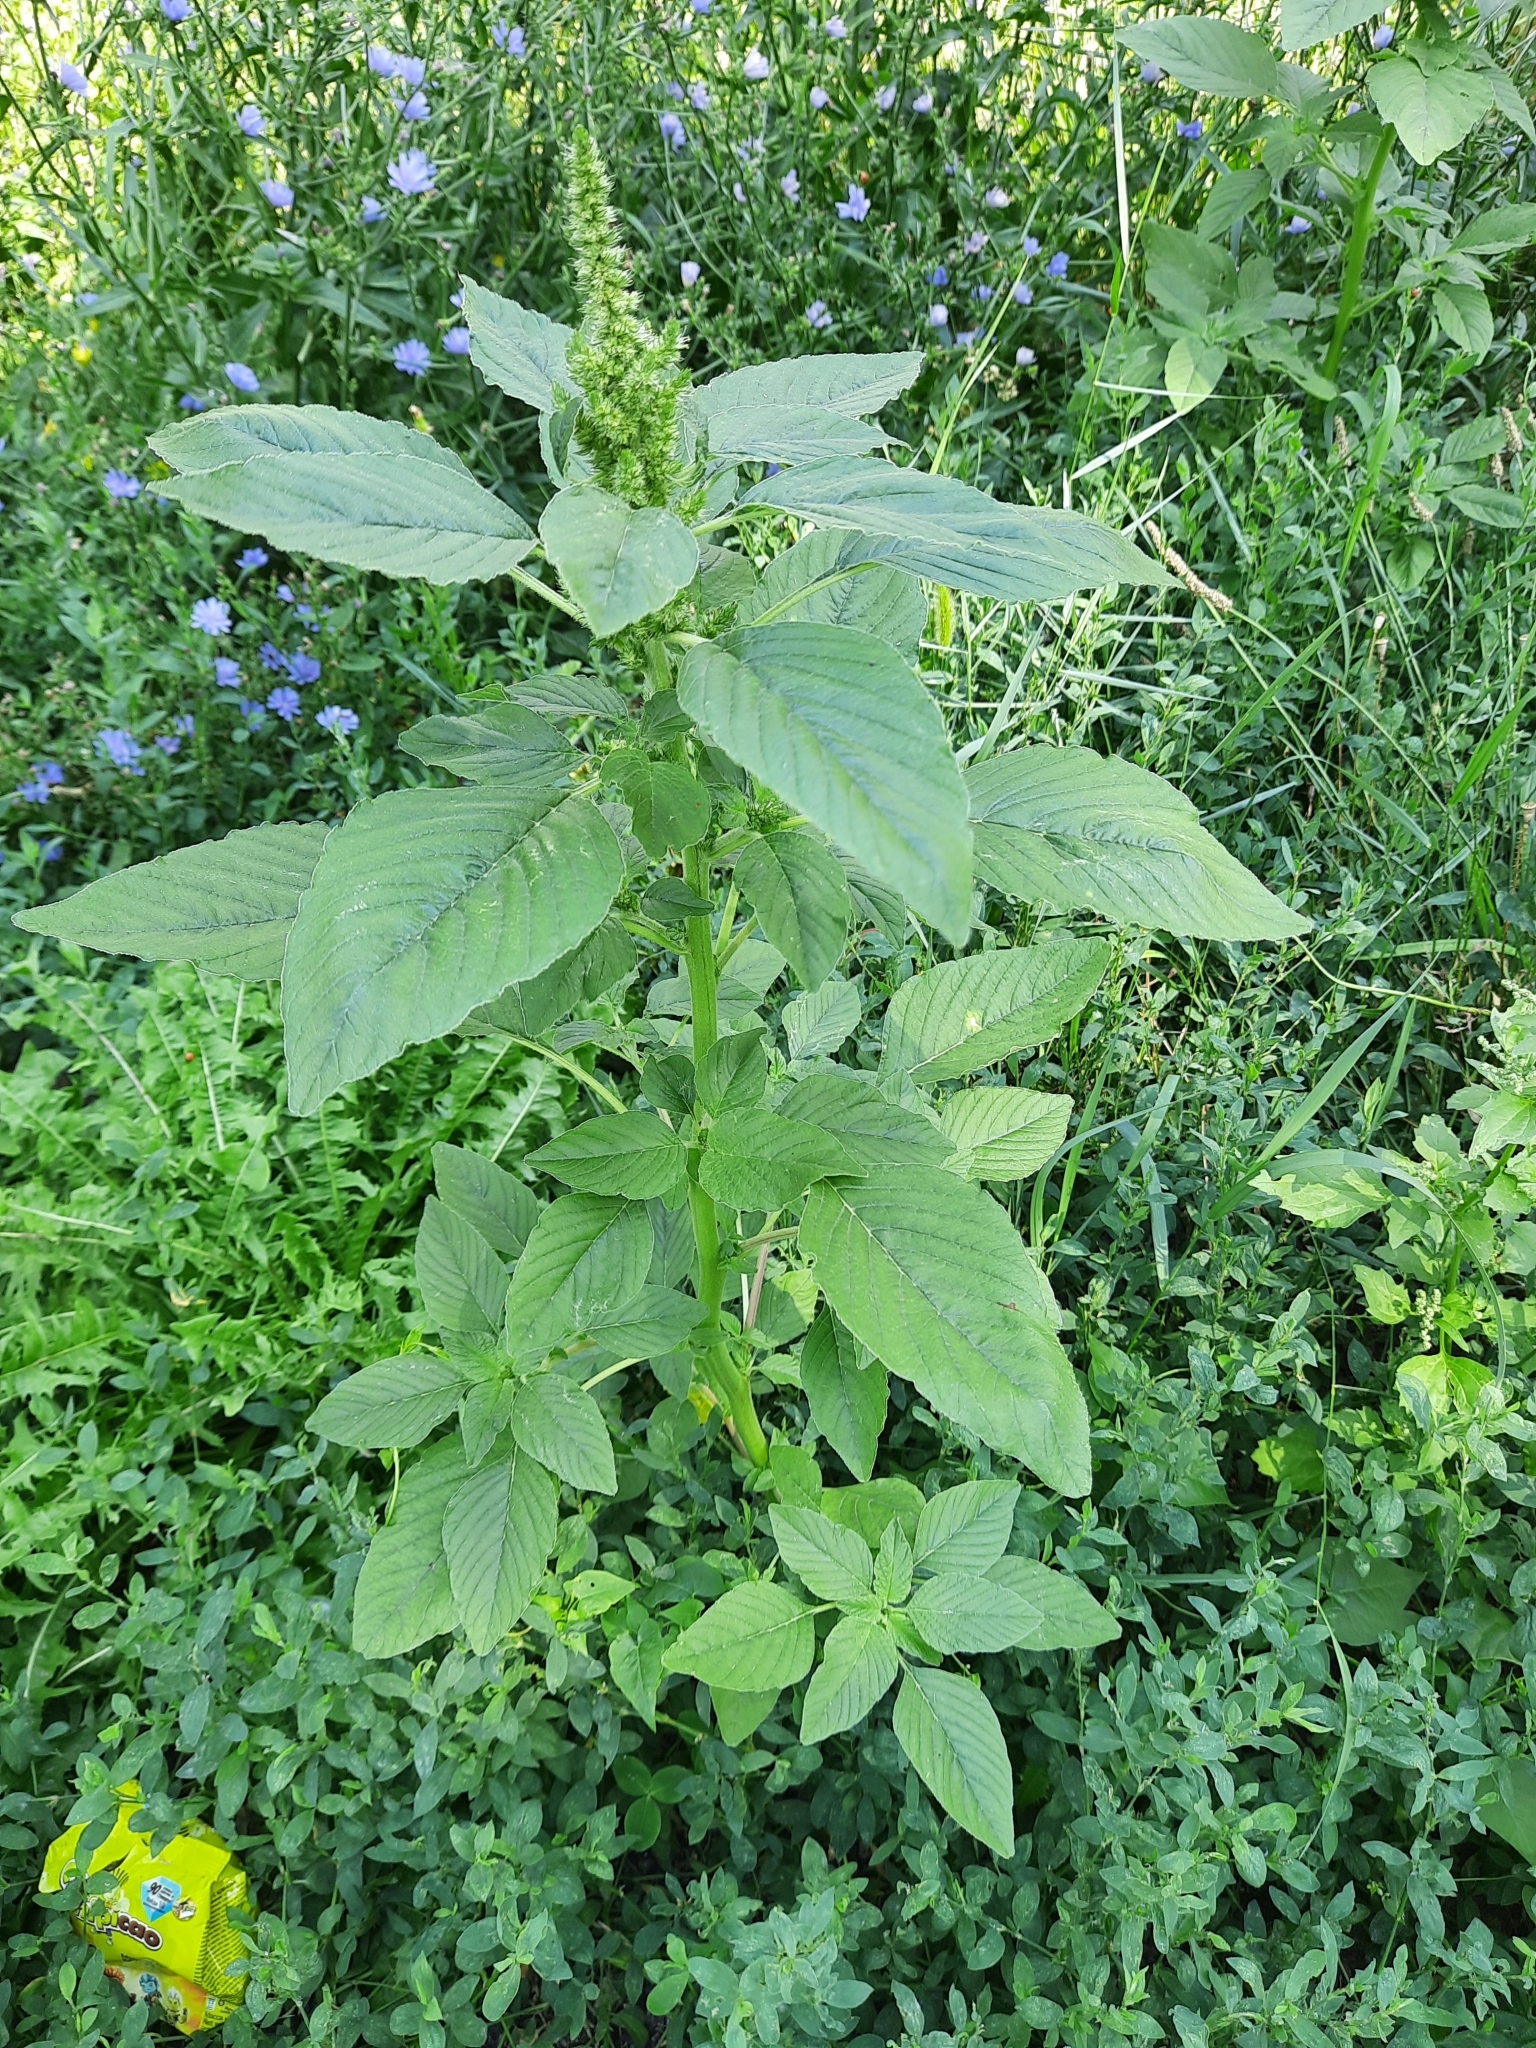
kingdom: Plantae
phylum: Tracheophyta
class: Magnoliopsida
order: Caryophyllales
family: Amaranthaceae
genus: Amaranthus
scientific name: Amaranthus retroflexus
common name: Redroot amaranth
